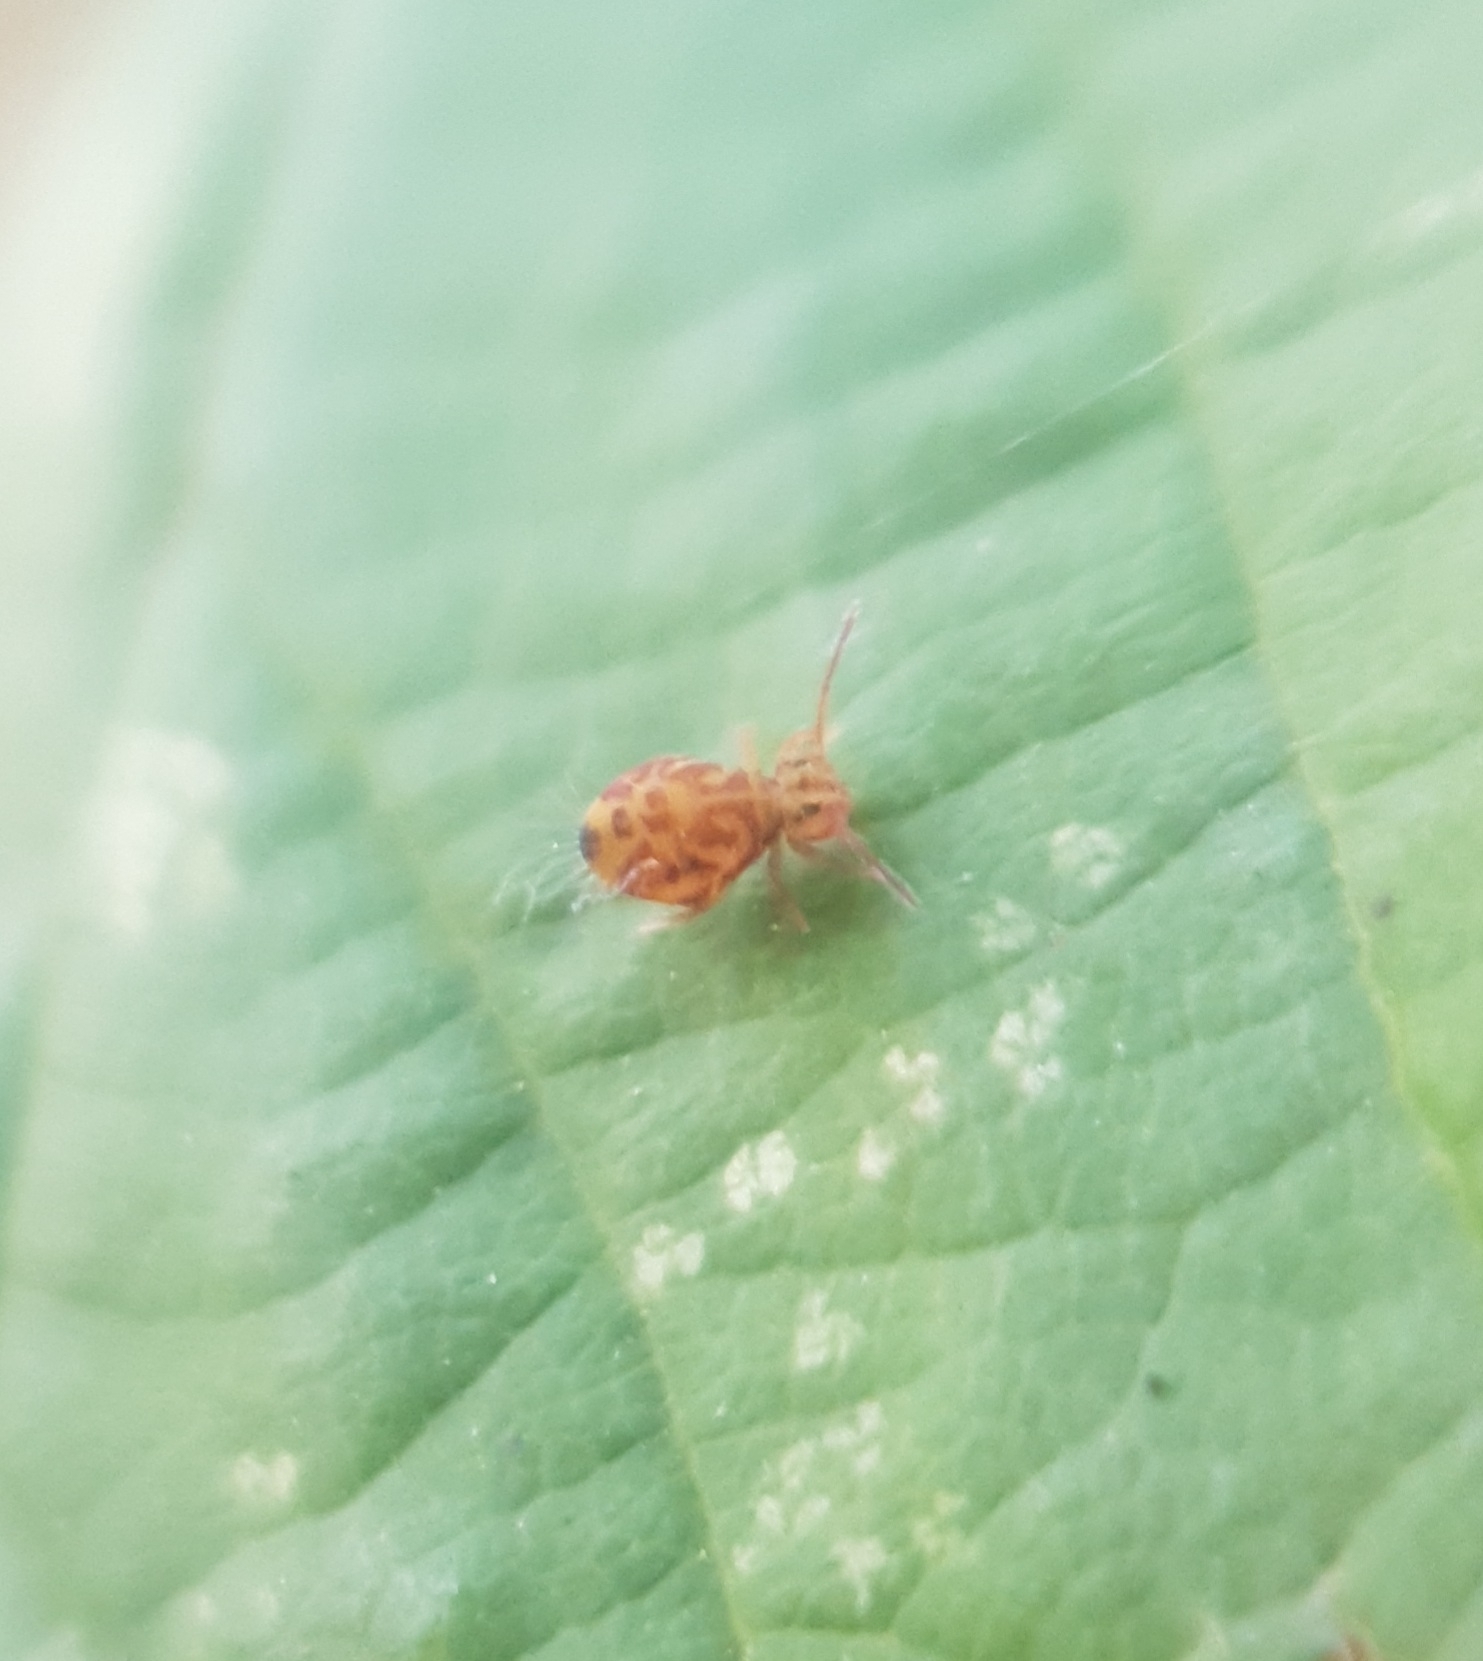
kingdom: Animalia
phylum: Arthropoda
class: Collembola
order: Symphypleona
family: Dicyrtomidae
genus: Dicyrtomina
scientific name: Dicyrtomina ornata
